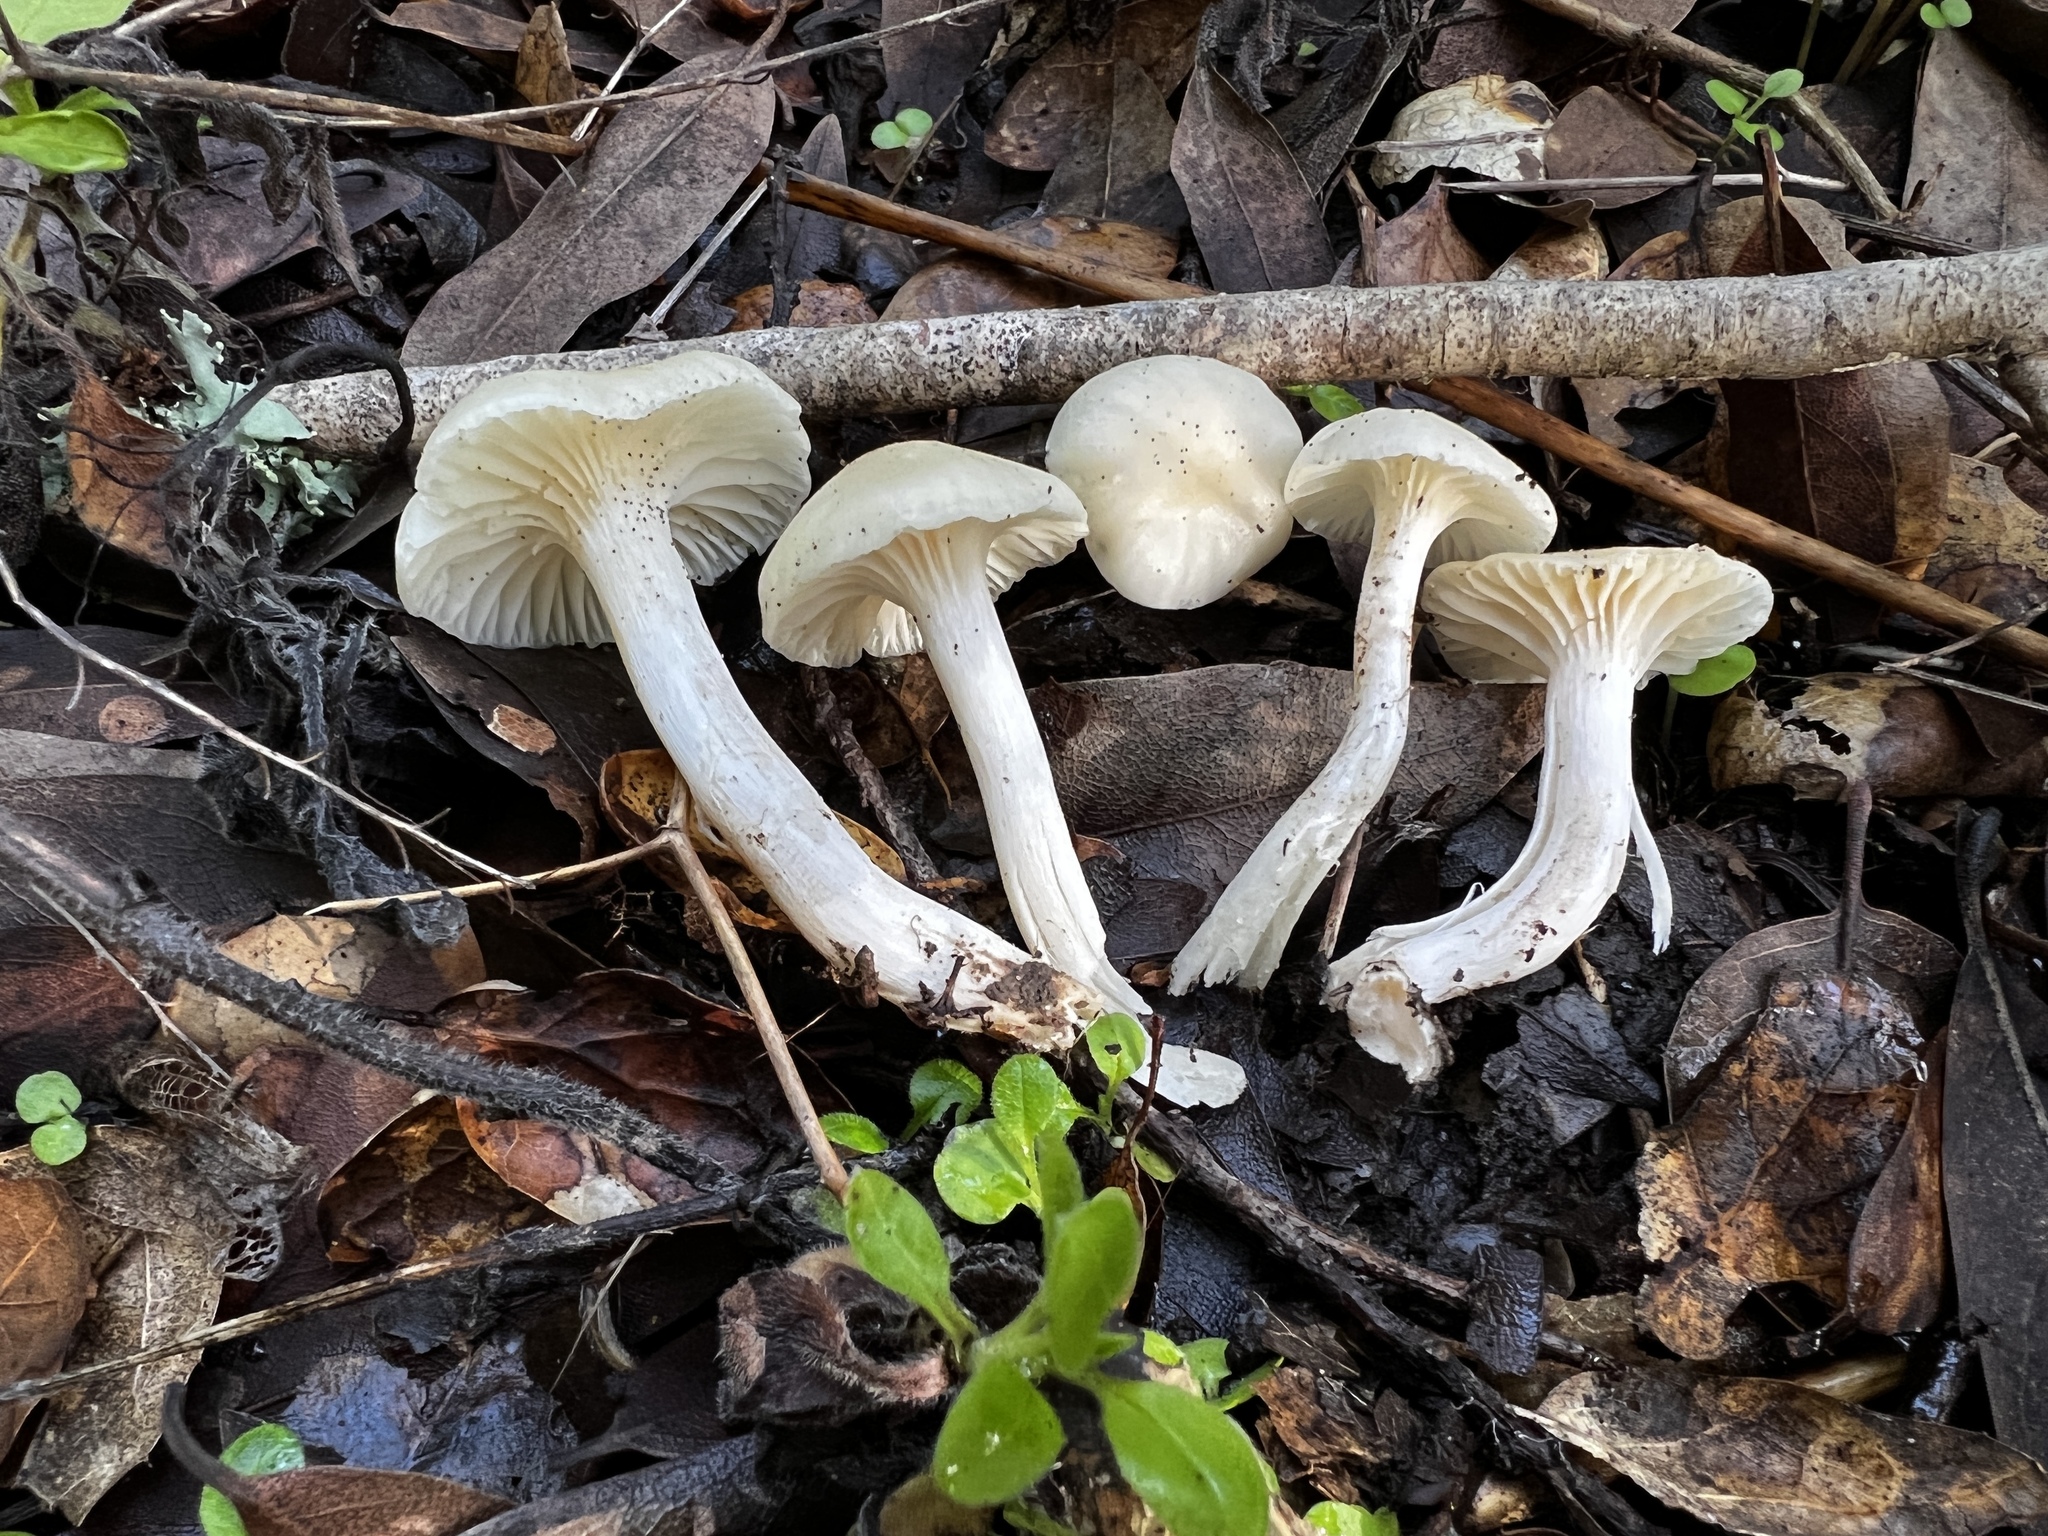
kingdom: Fungi
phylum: Basidiomycota
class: Agaricomycetes
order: Agaricales
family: Hygrophoraceae
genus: Cuphophyllus
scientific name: Cuphophyllus virgineus
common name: Snowy waxcap
